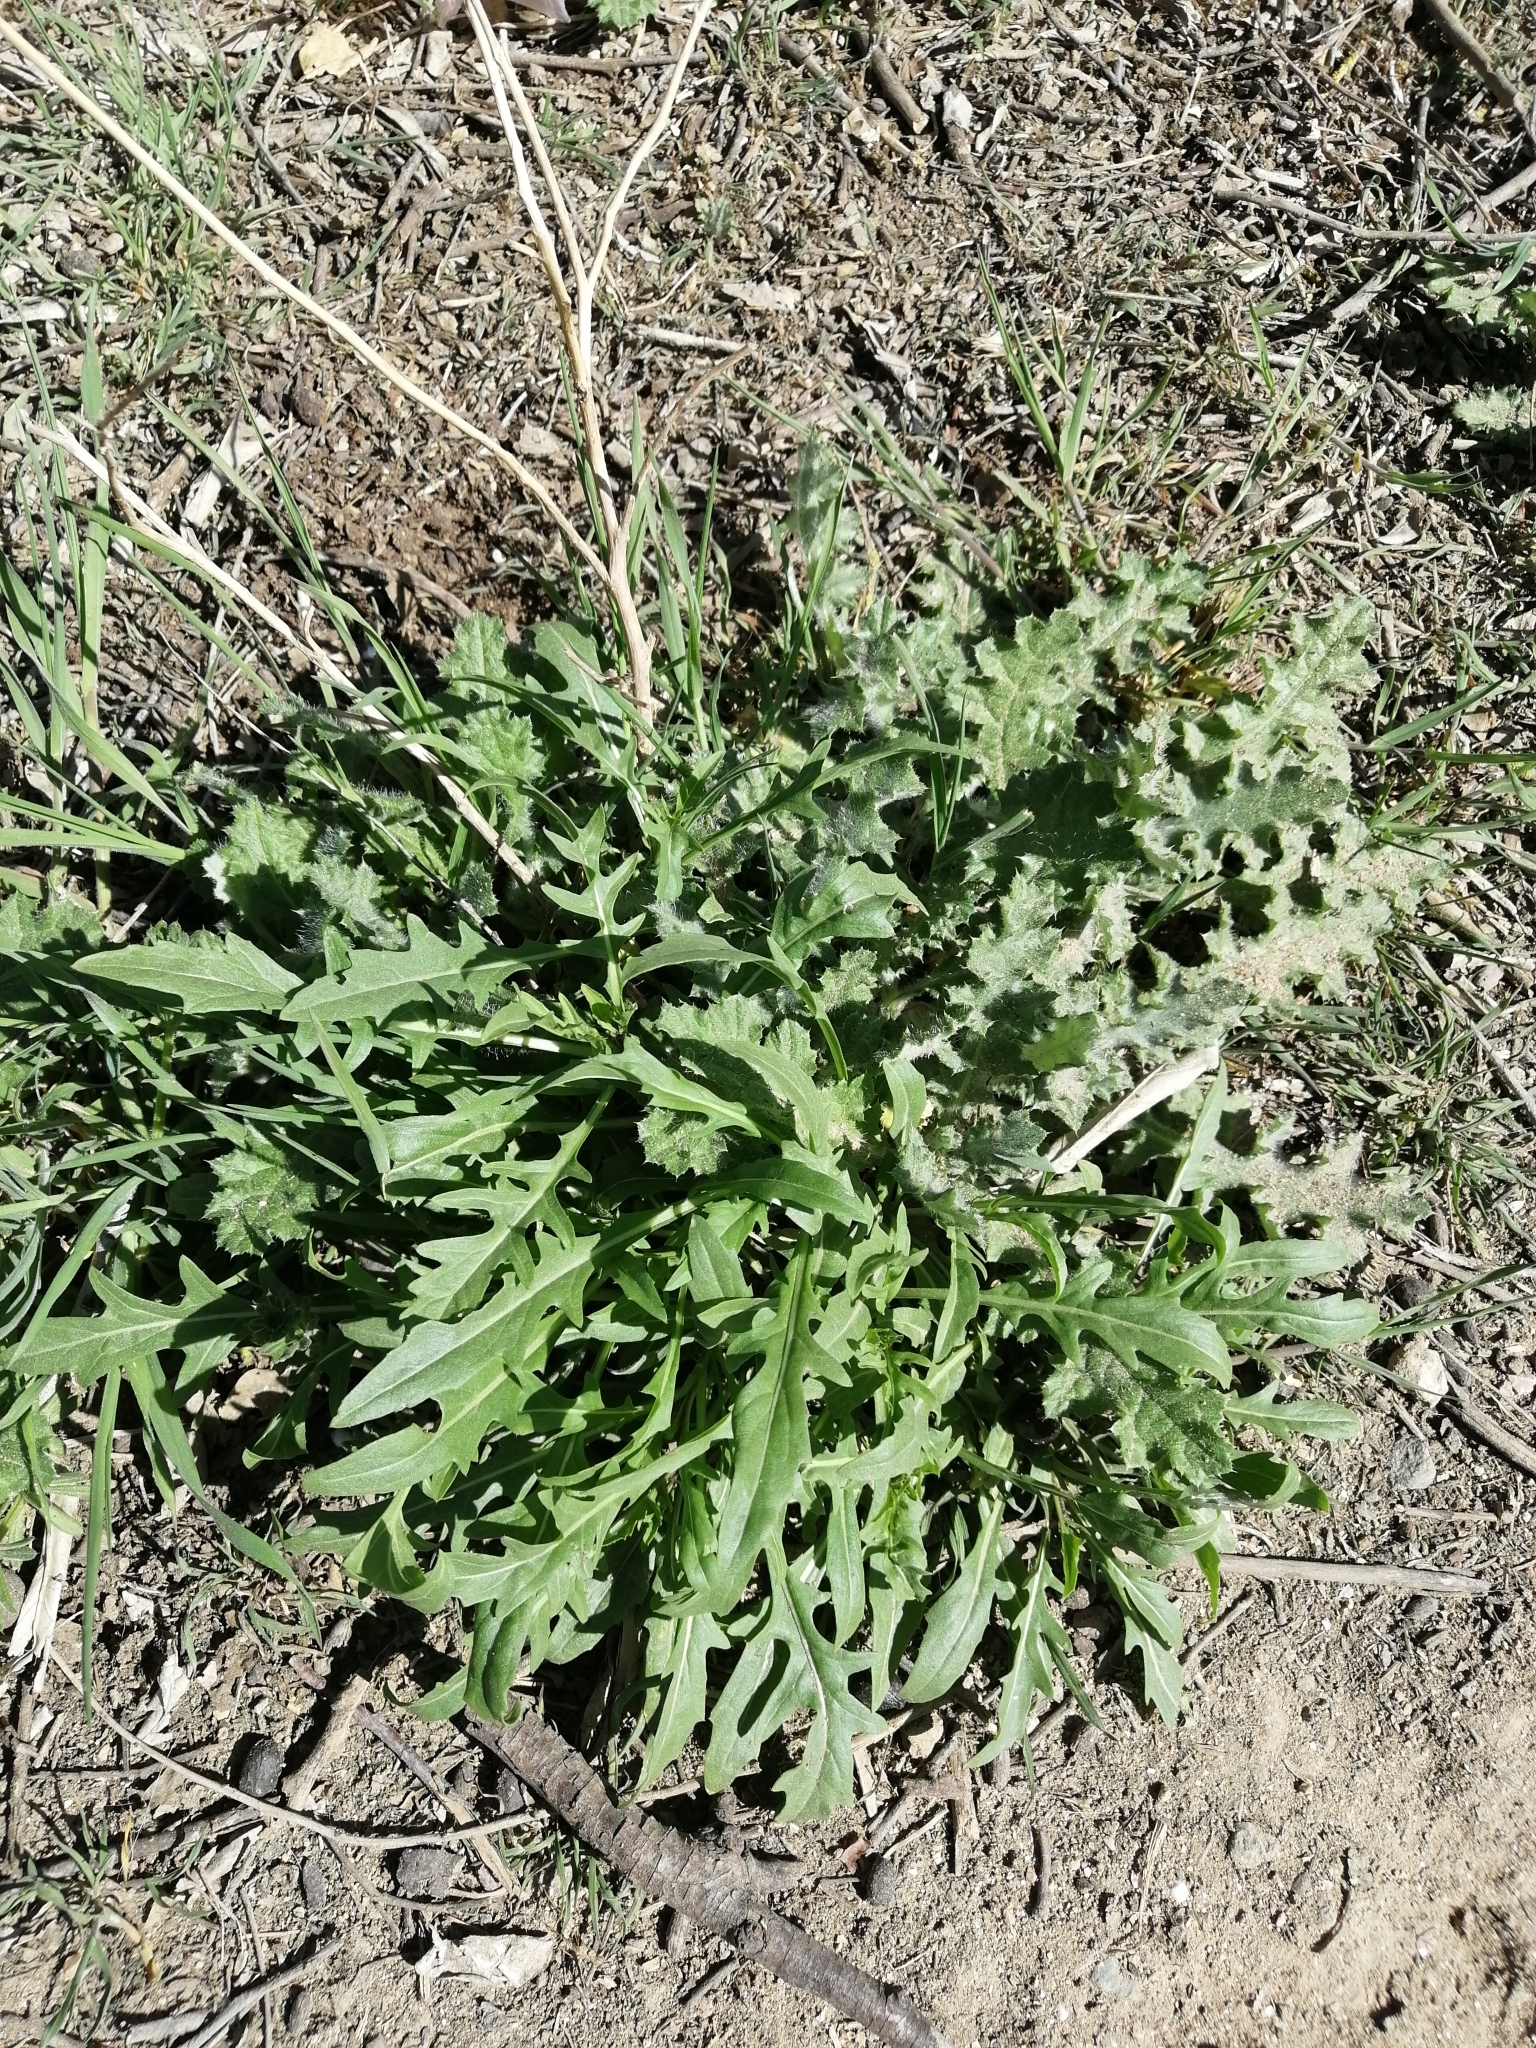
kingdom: Plantae
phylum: Tracheophyta
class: Magnoliopsida
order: Brassicales
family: Brassicaceae
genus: Diplotaxis
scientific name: Diplotaxis tenuifolia
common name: Perennial wall-rocket
